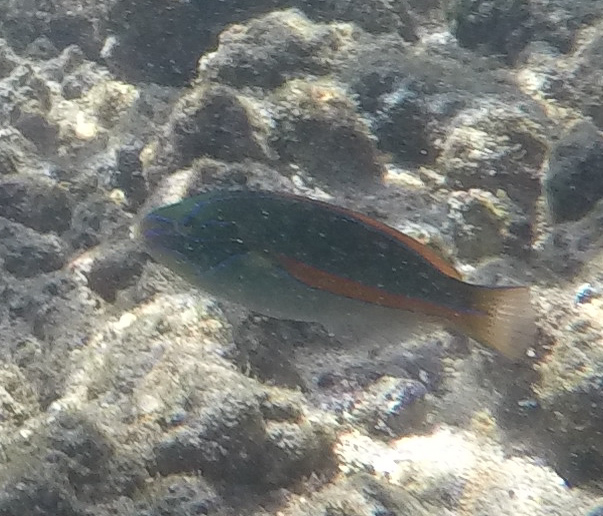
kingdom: Animalia
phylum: Chordata
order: Perciformes
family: Labridae
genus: Stethojulis
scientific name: Stethojulis balteata
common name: Belted wrasse
